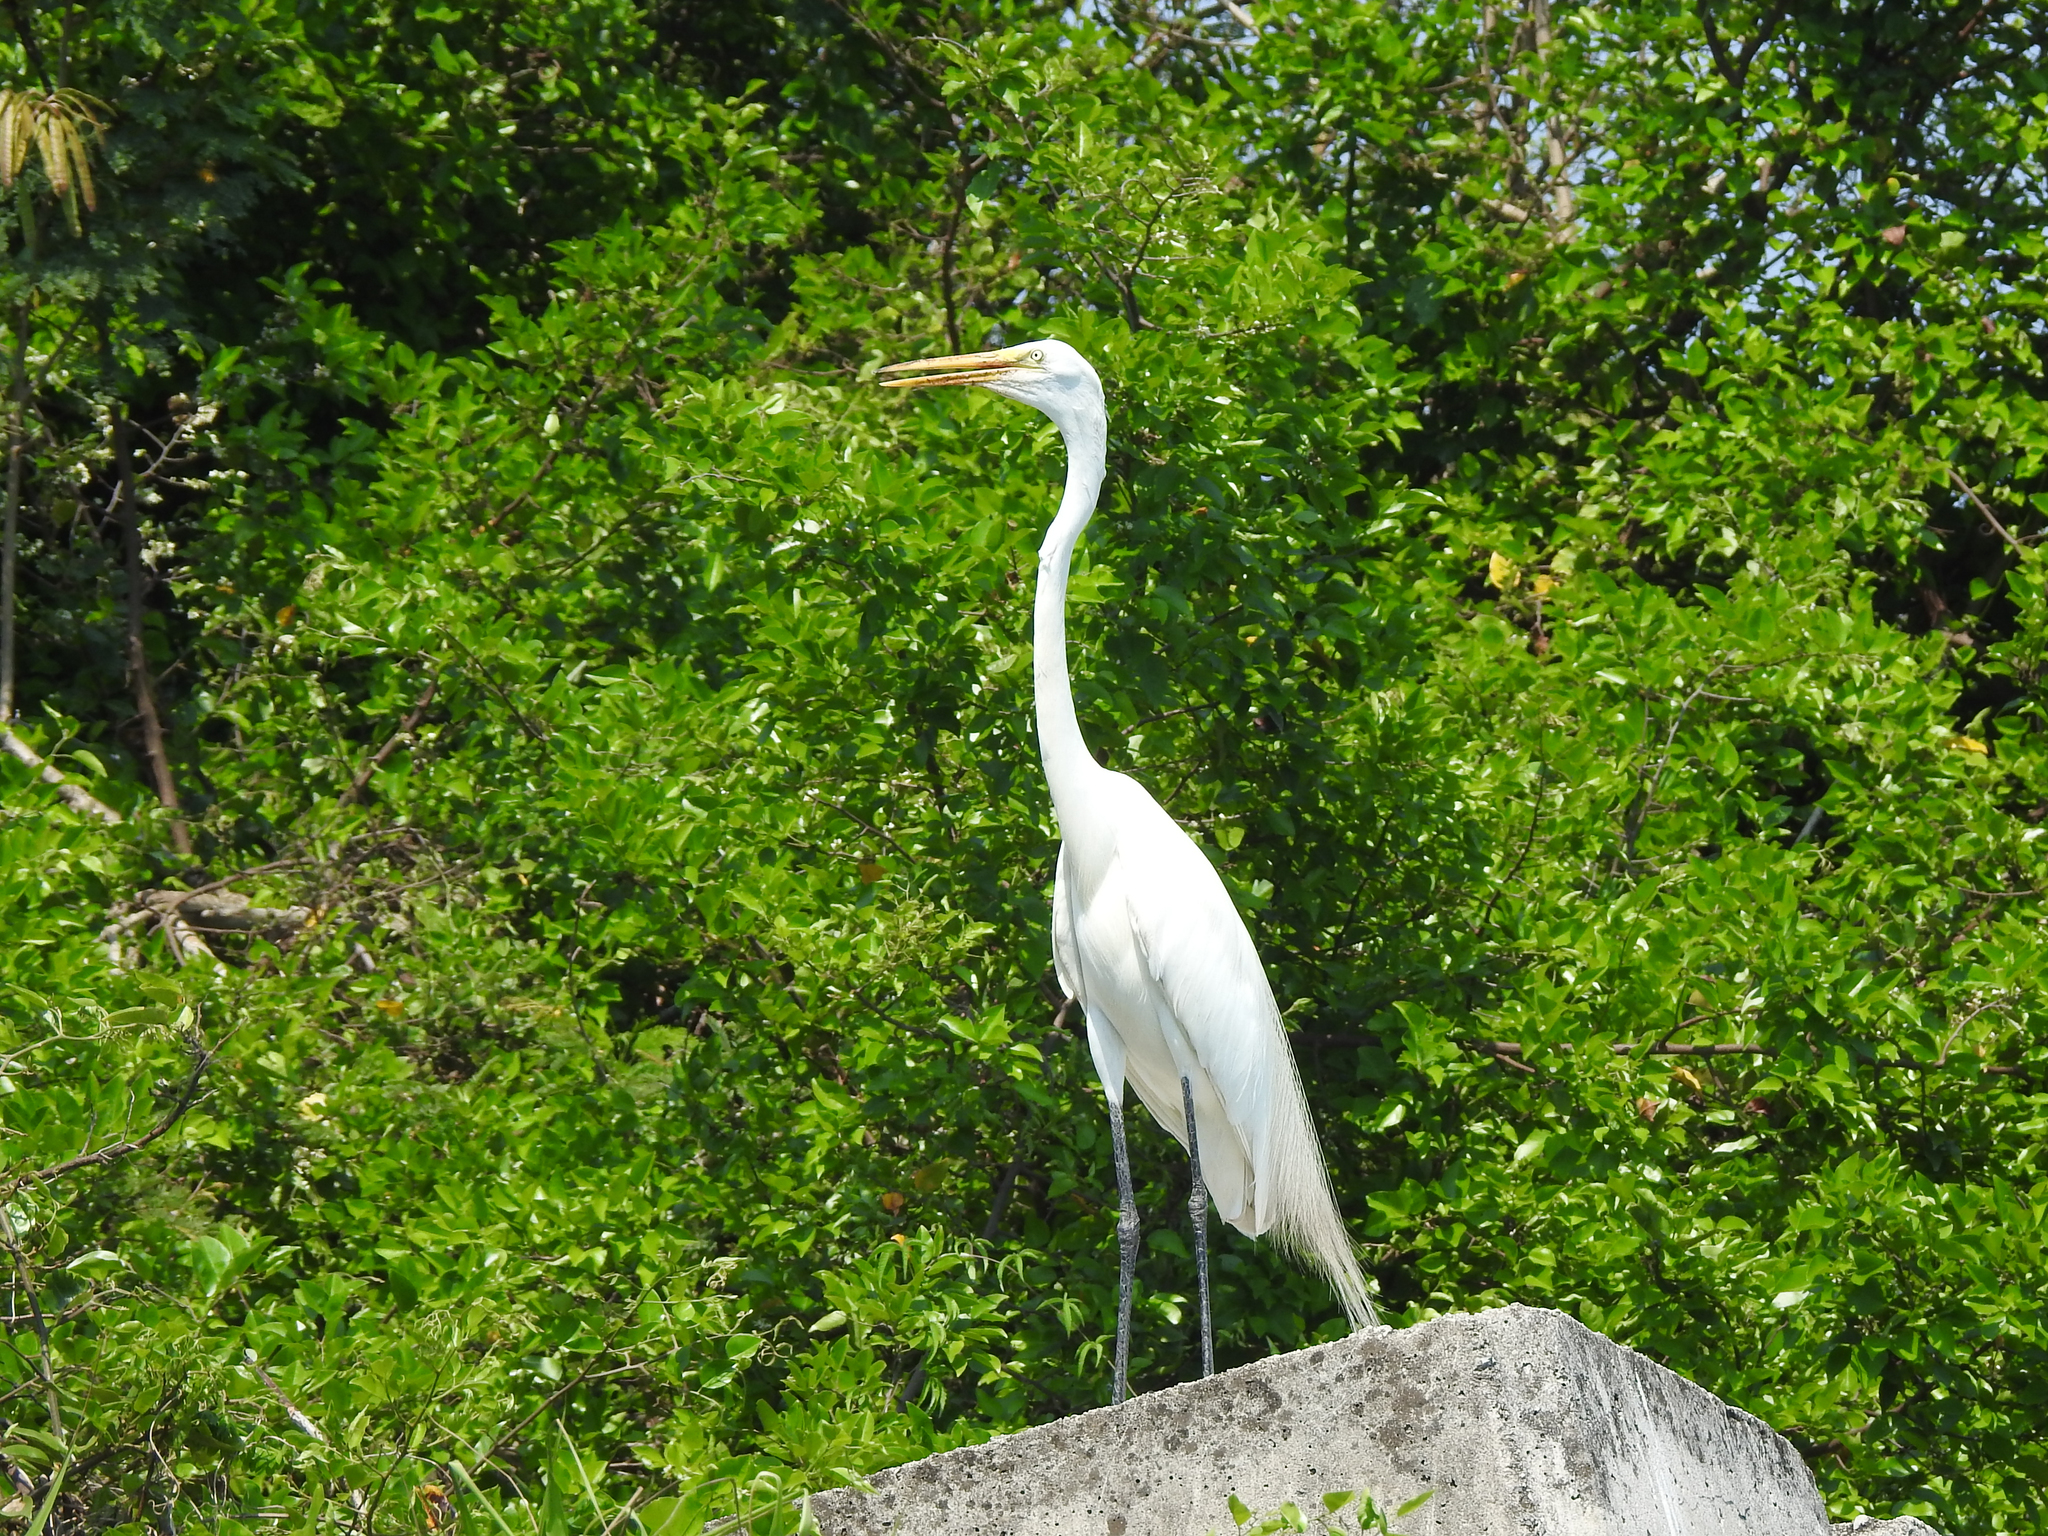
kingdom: Animalia
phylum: Chordata
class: Aves
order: Pelecaniformes
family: Ardeidae
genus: Ardea
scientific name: Ardea alba
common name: Great egret
